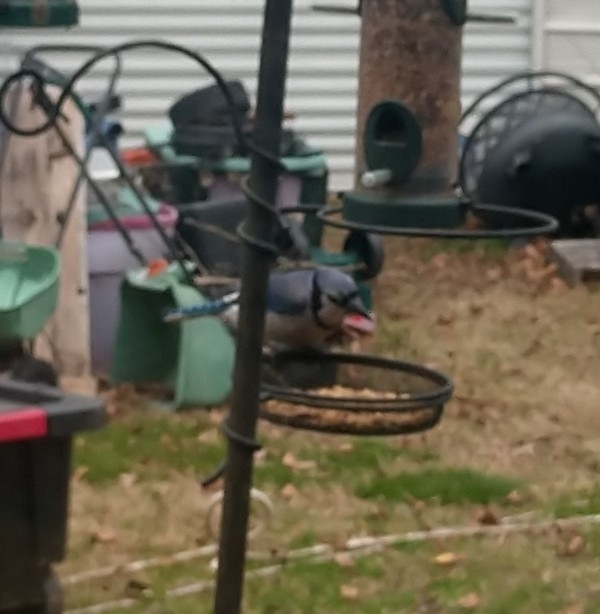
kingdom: Animalia
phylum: Chordata
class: Aves
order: Passeriformes
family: Corvidae
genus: Cyanocitta
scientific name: Cyanocitta cristata
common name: Blue jay
